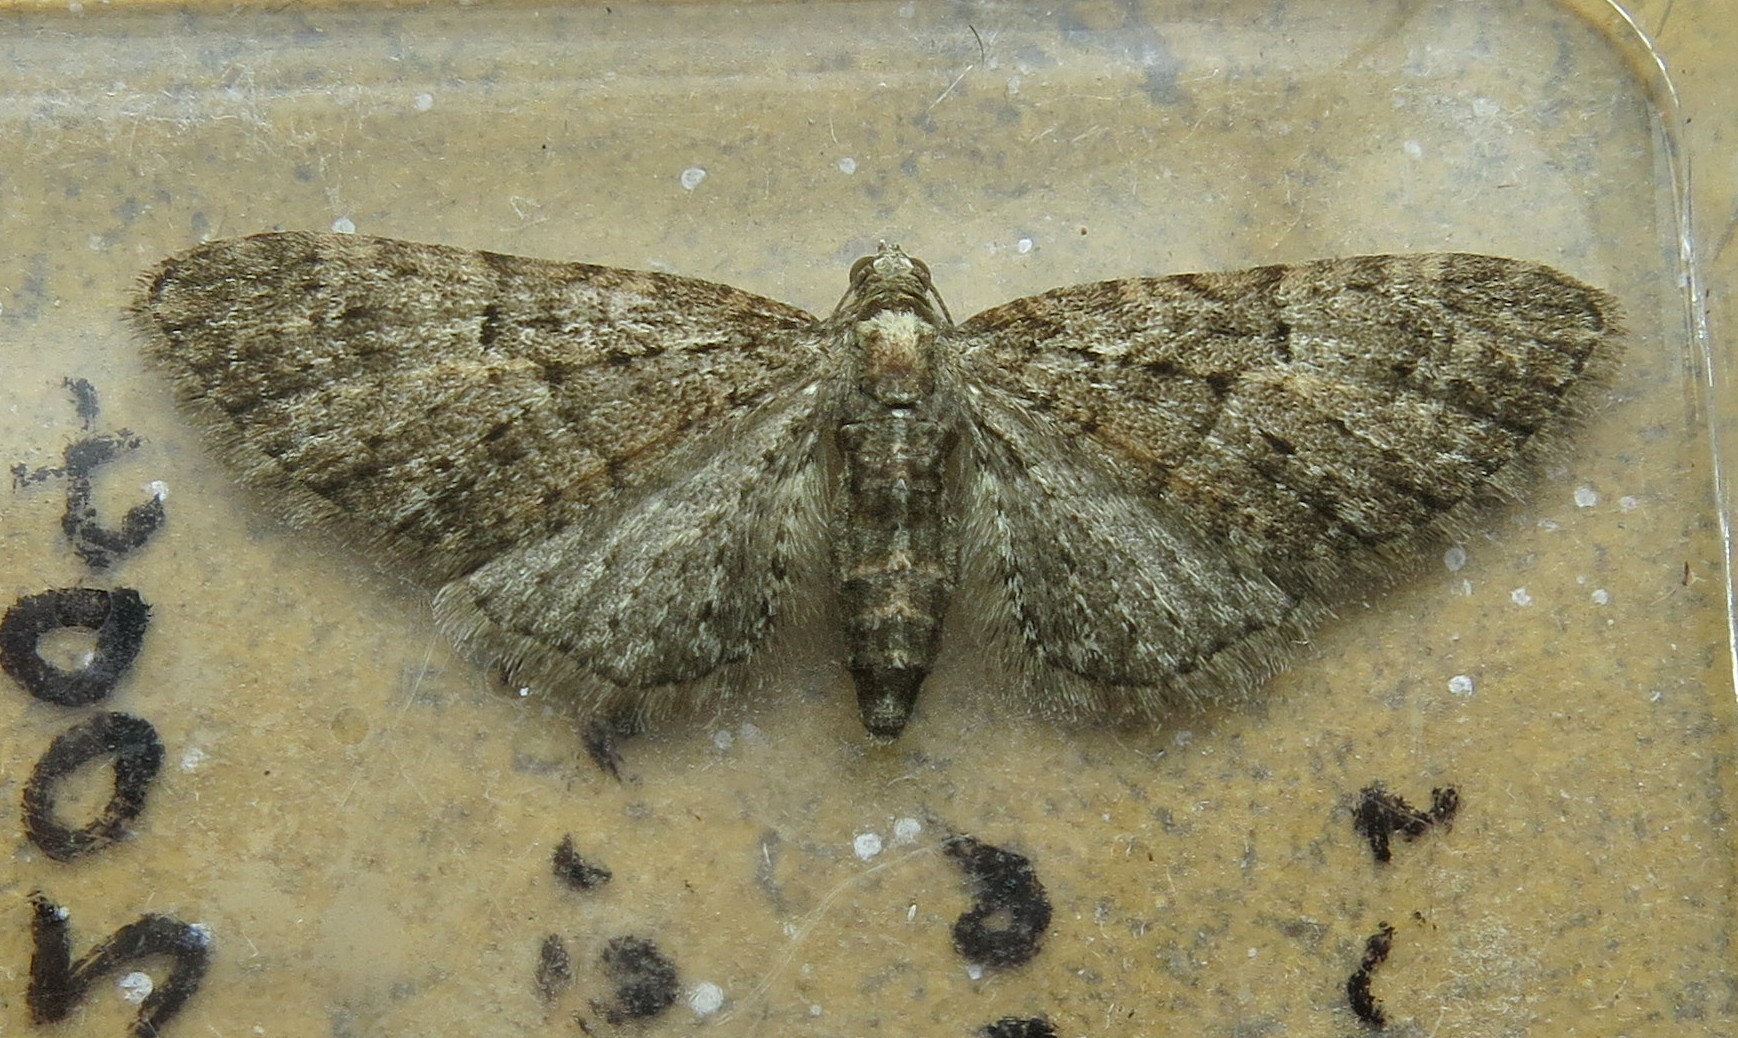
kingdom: Animalia
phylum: Arthropoda
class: Insecta
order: Lepidoptera
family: Geometridae
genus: Eupithecia
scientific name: Eupithecia abbreviata
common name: Brindled pug
